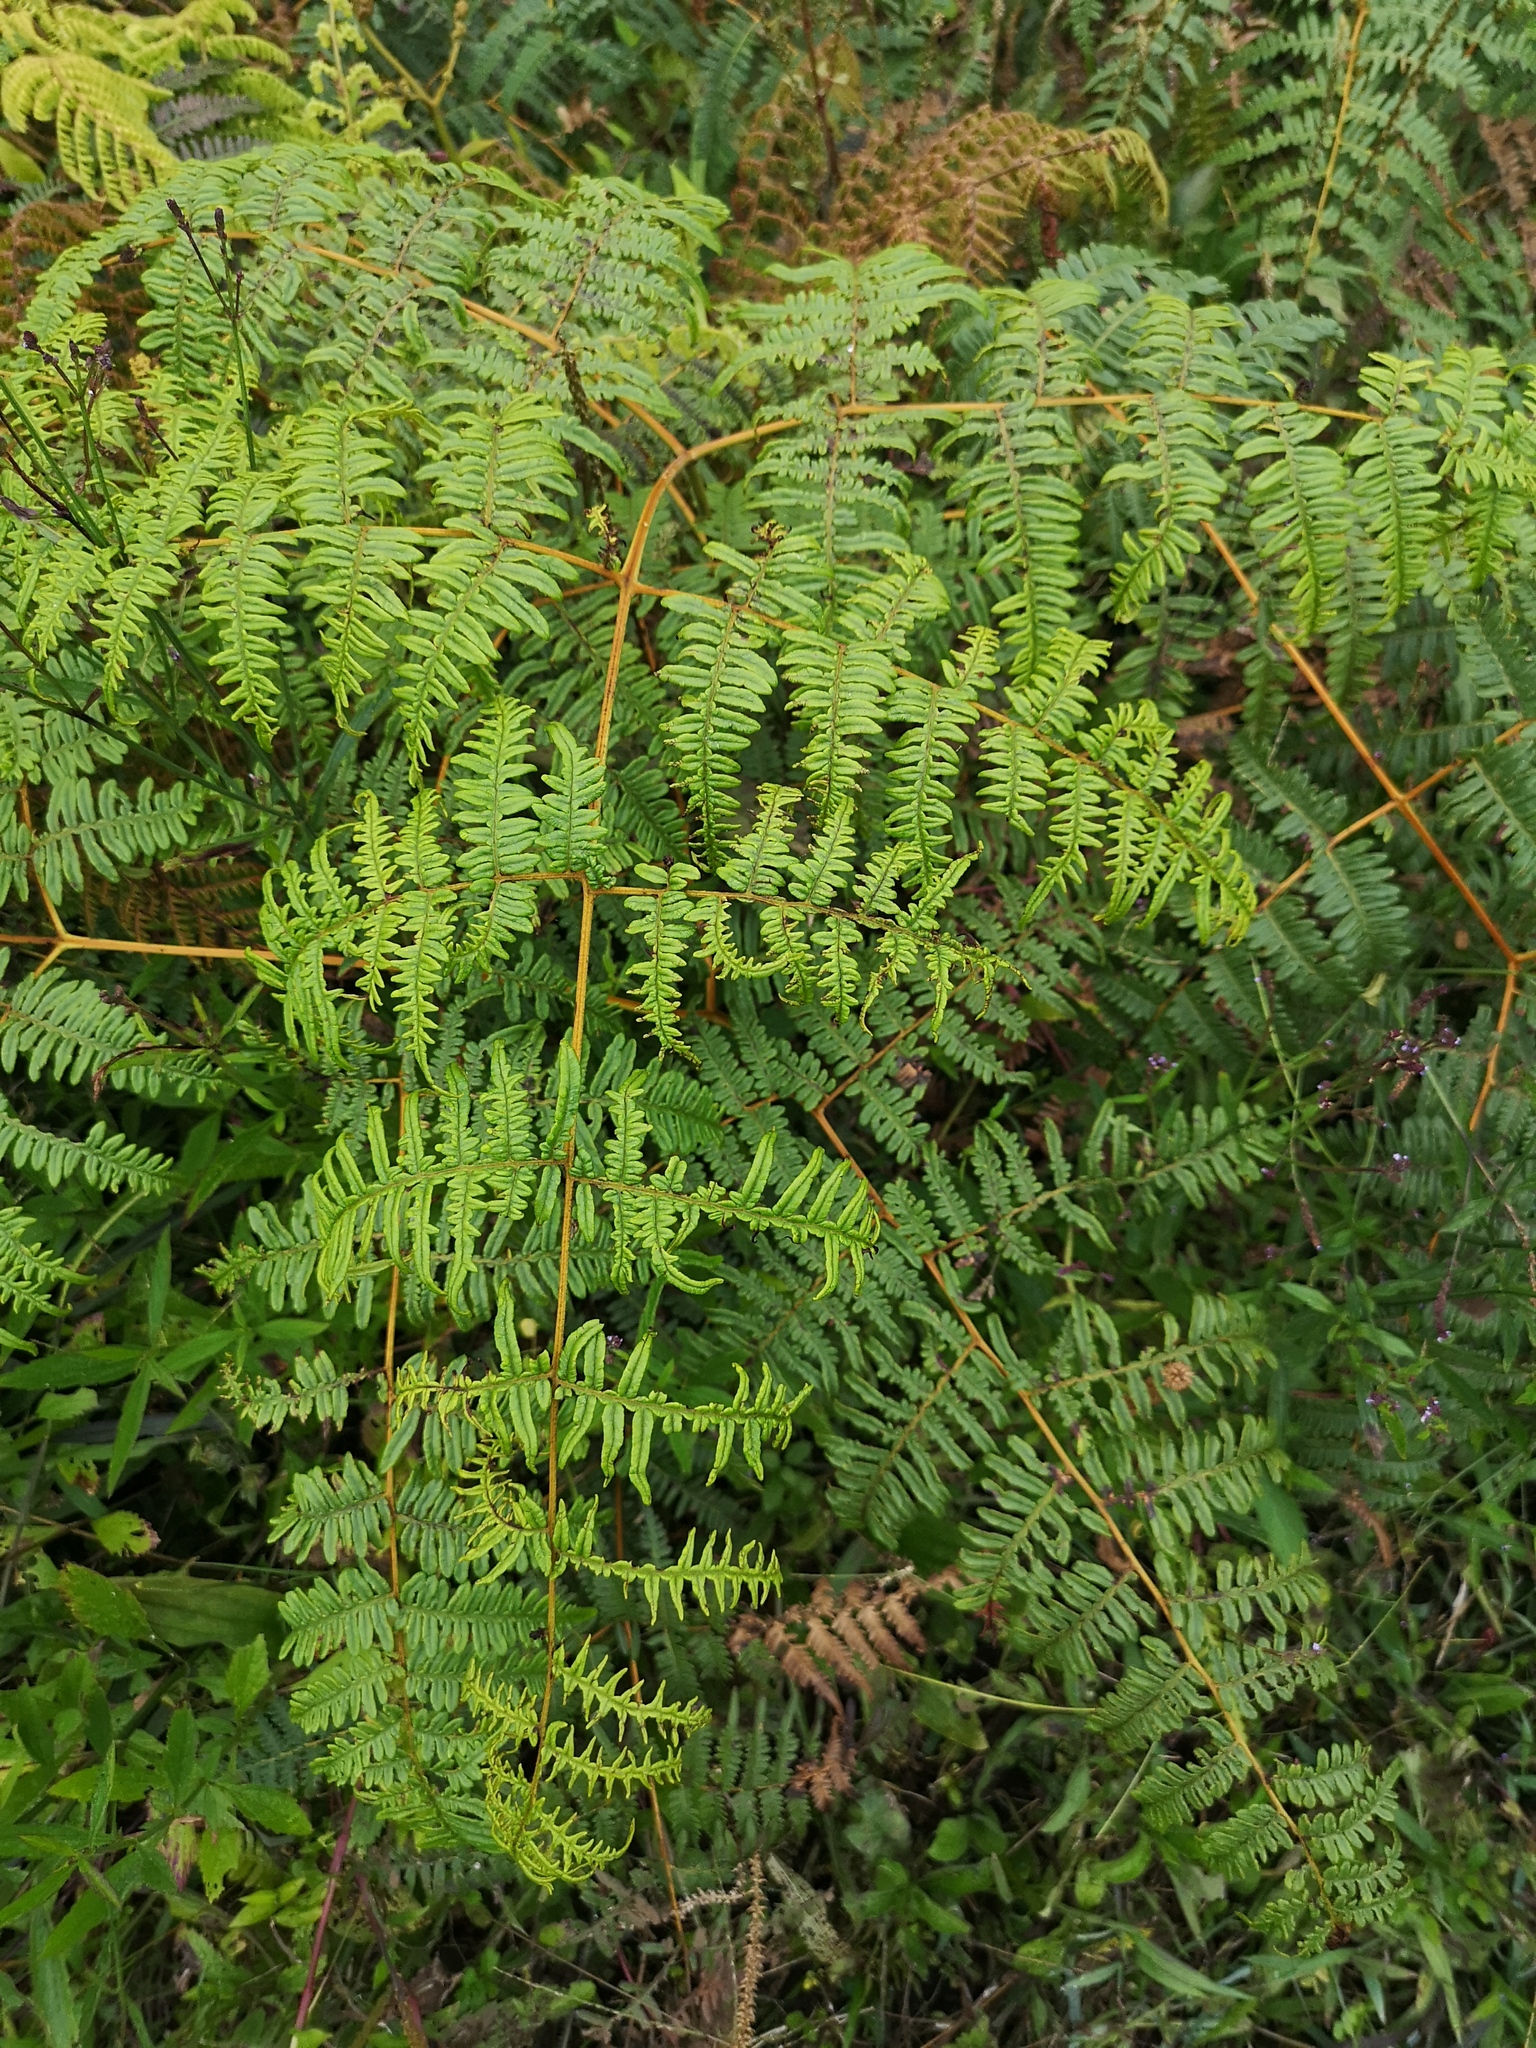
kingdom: Plantae
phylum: Tracheophyta
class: Polypodiopsida
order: Polypodiales
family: Dennstaedtiaceae
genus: Pteridium
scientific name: Pteridium aquilinum
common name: Bracken
